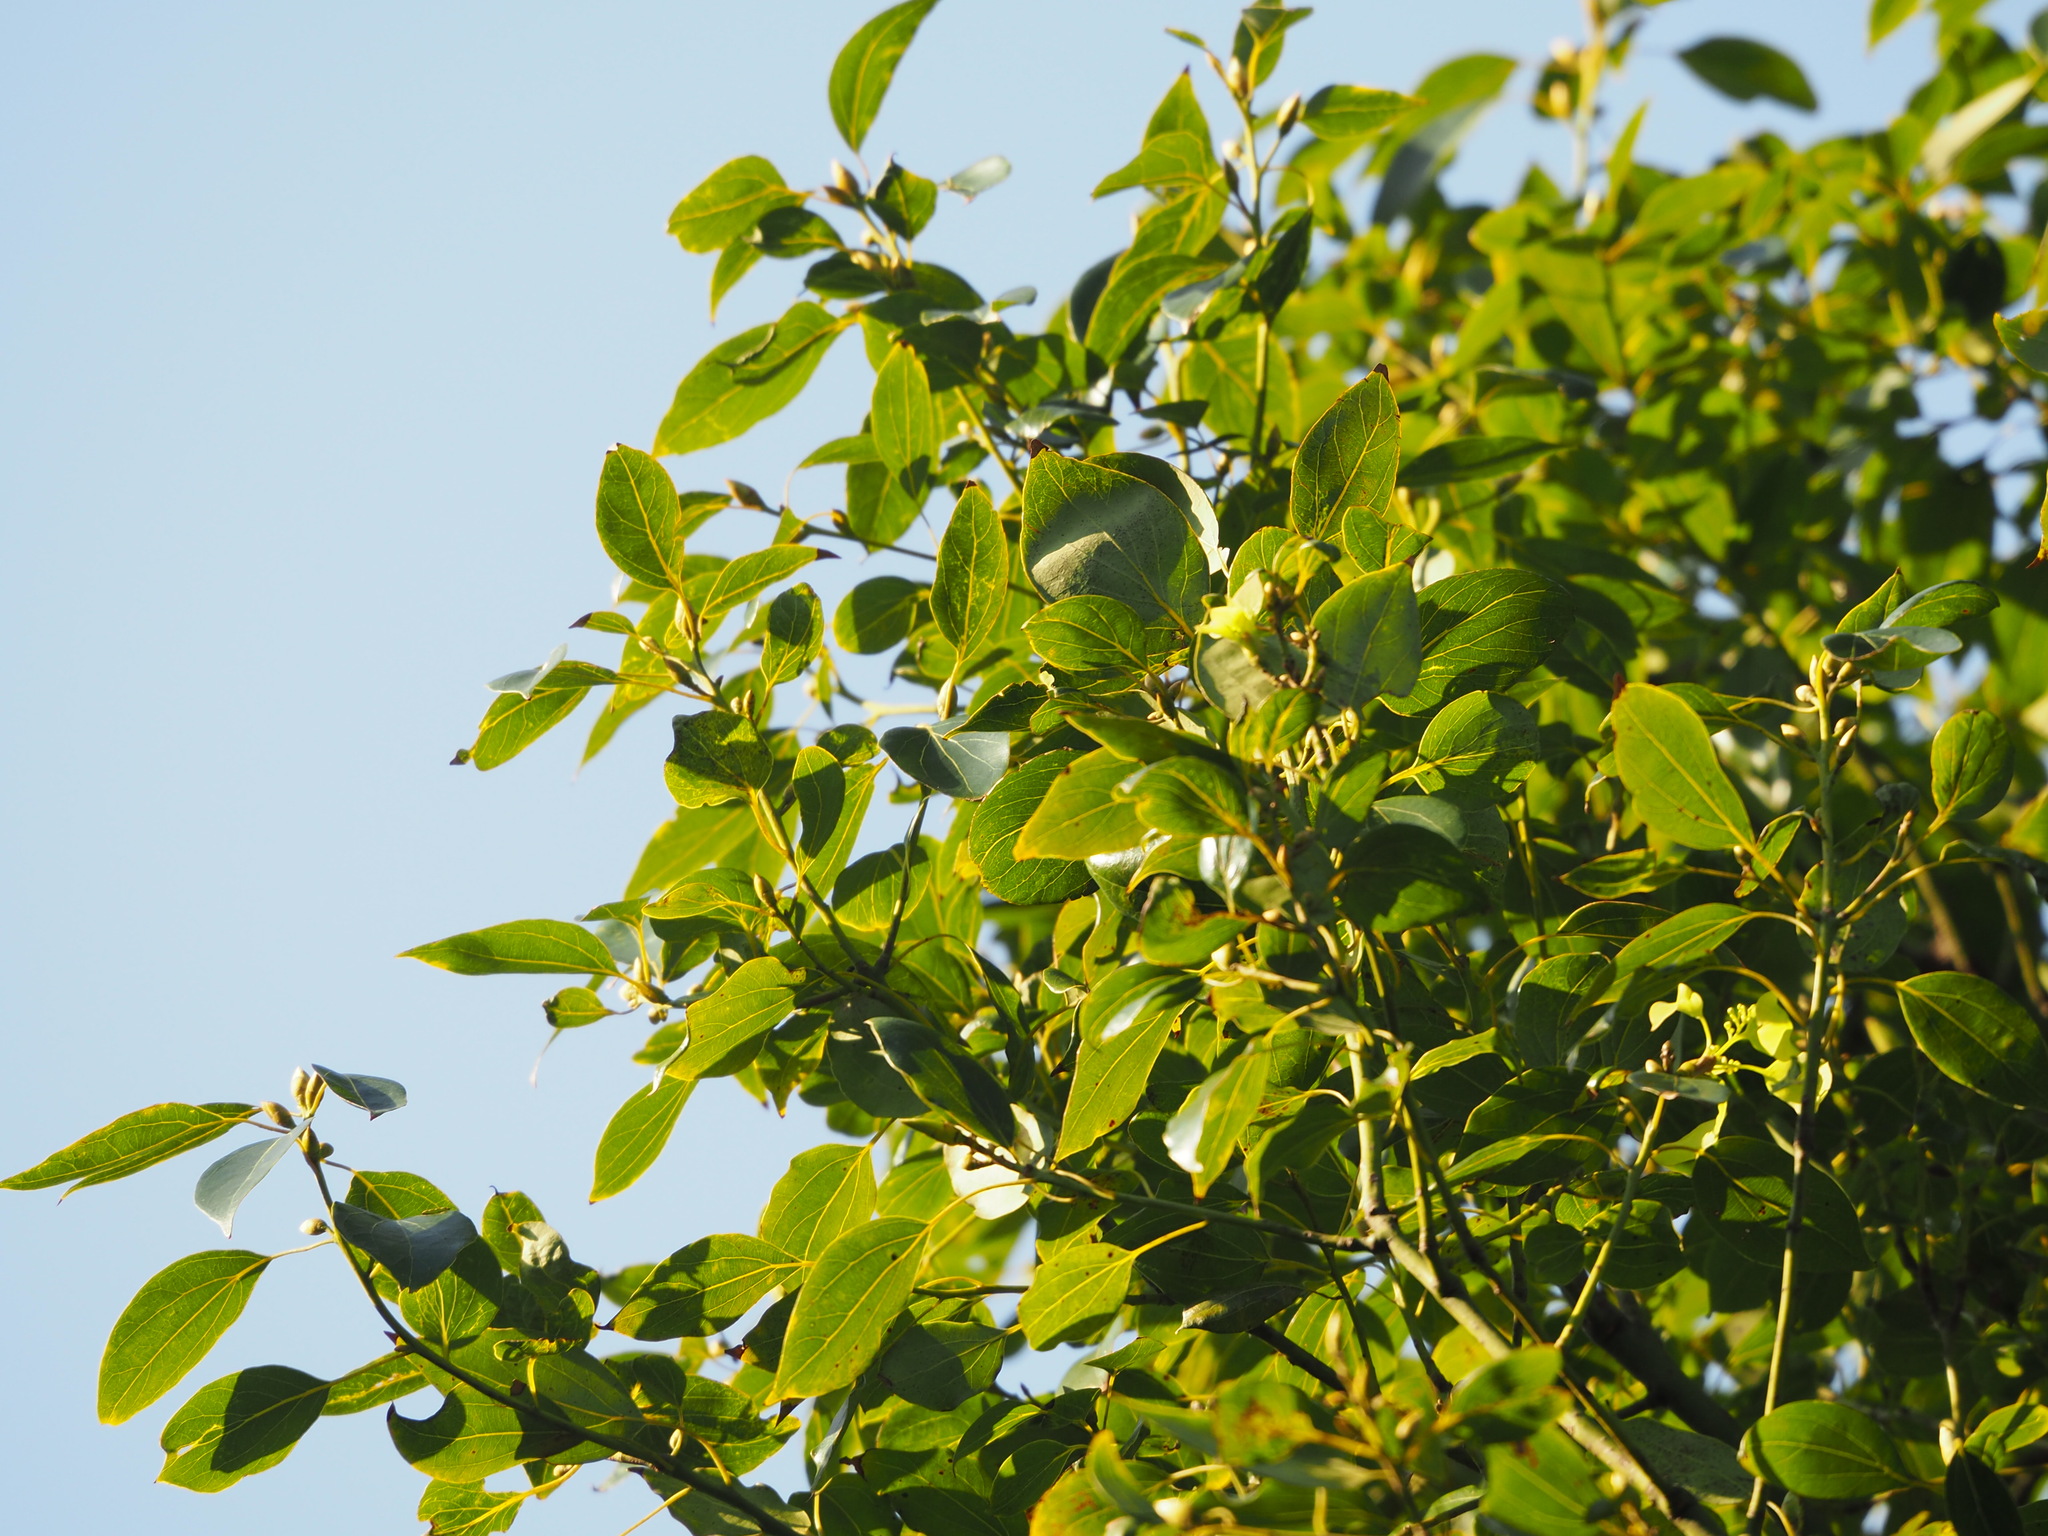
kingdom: Plantae
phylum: Tracheophyta
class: Magnoliopsida
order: Laurales
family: Lauraceae
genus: Cinnamomum
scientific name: Cinnamomum camphora
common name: Camphortree
